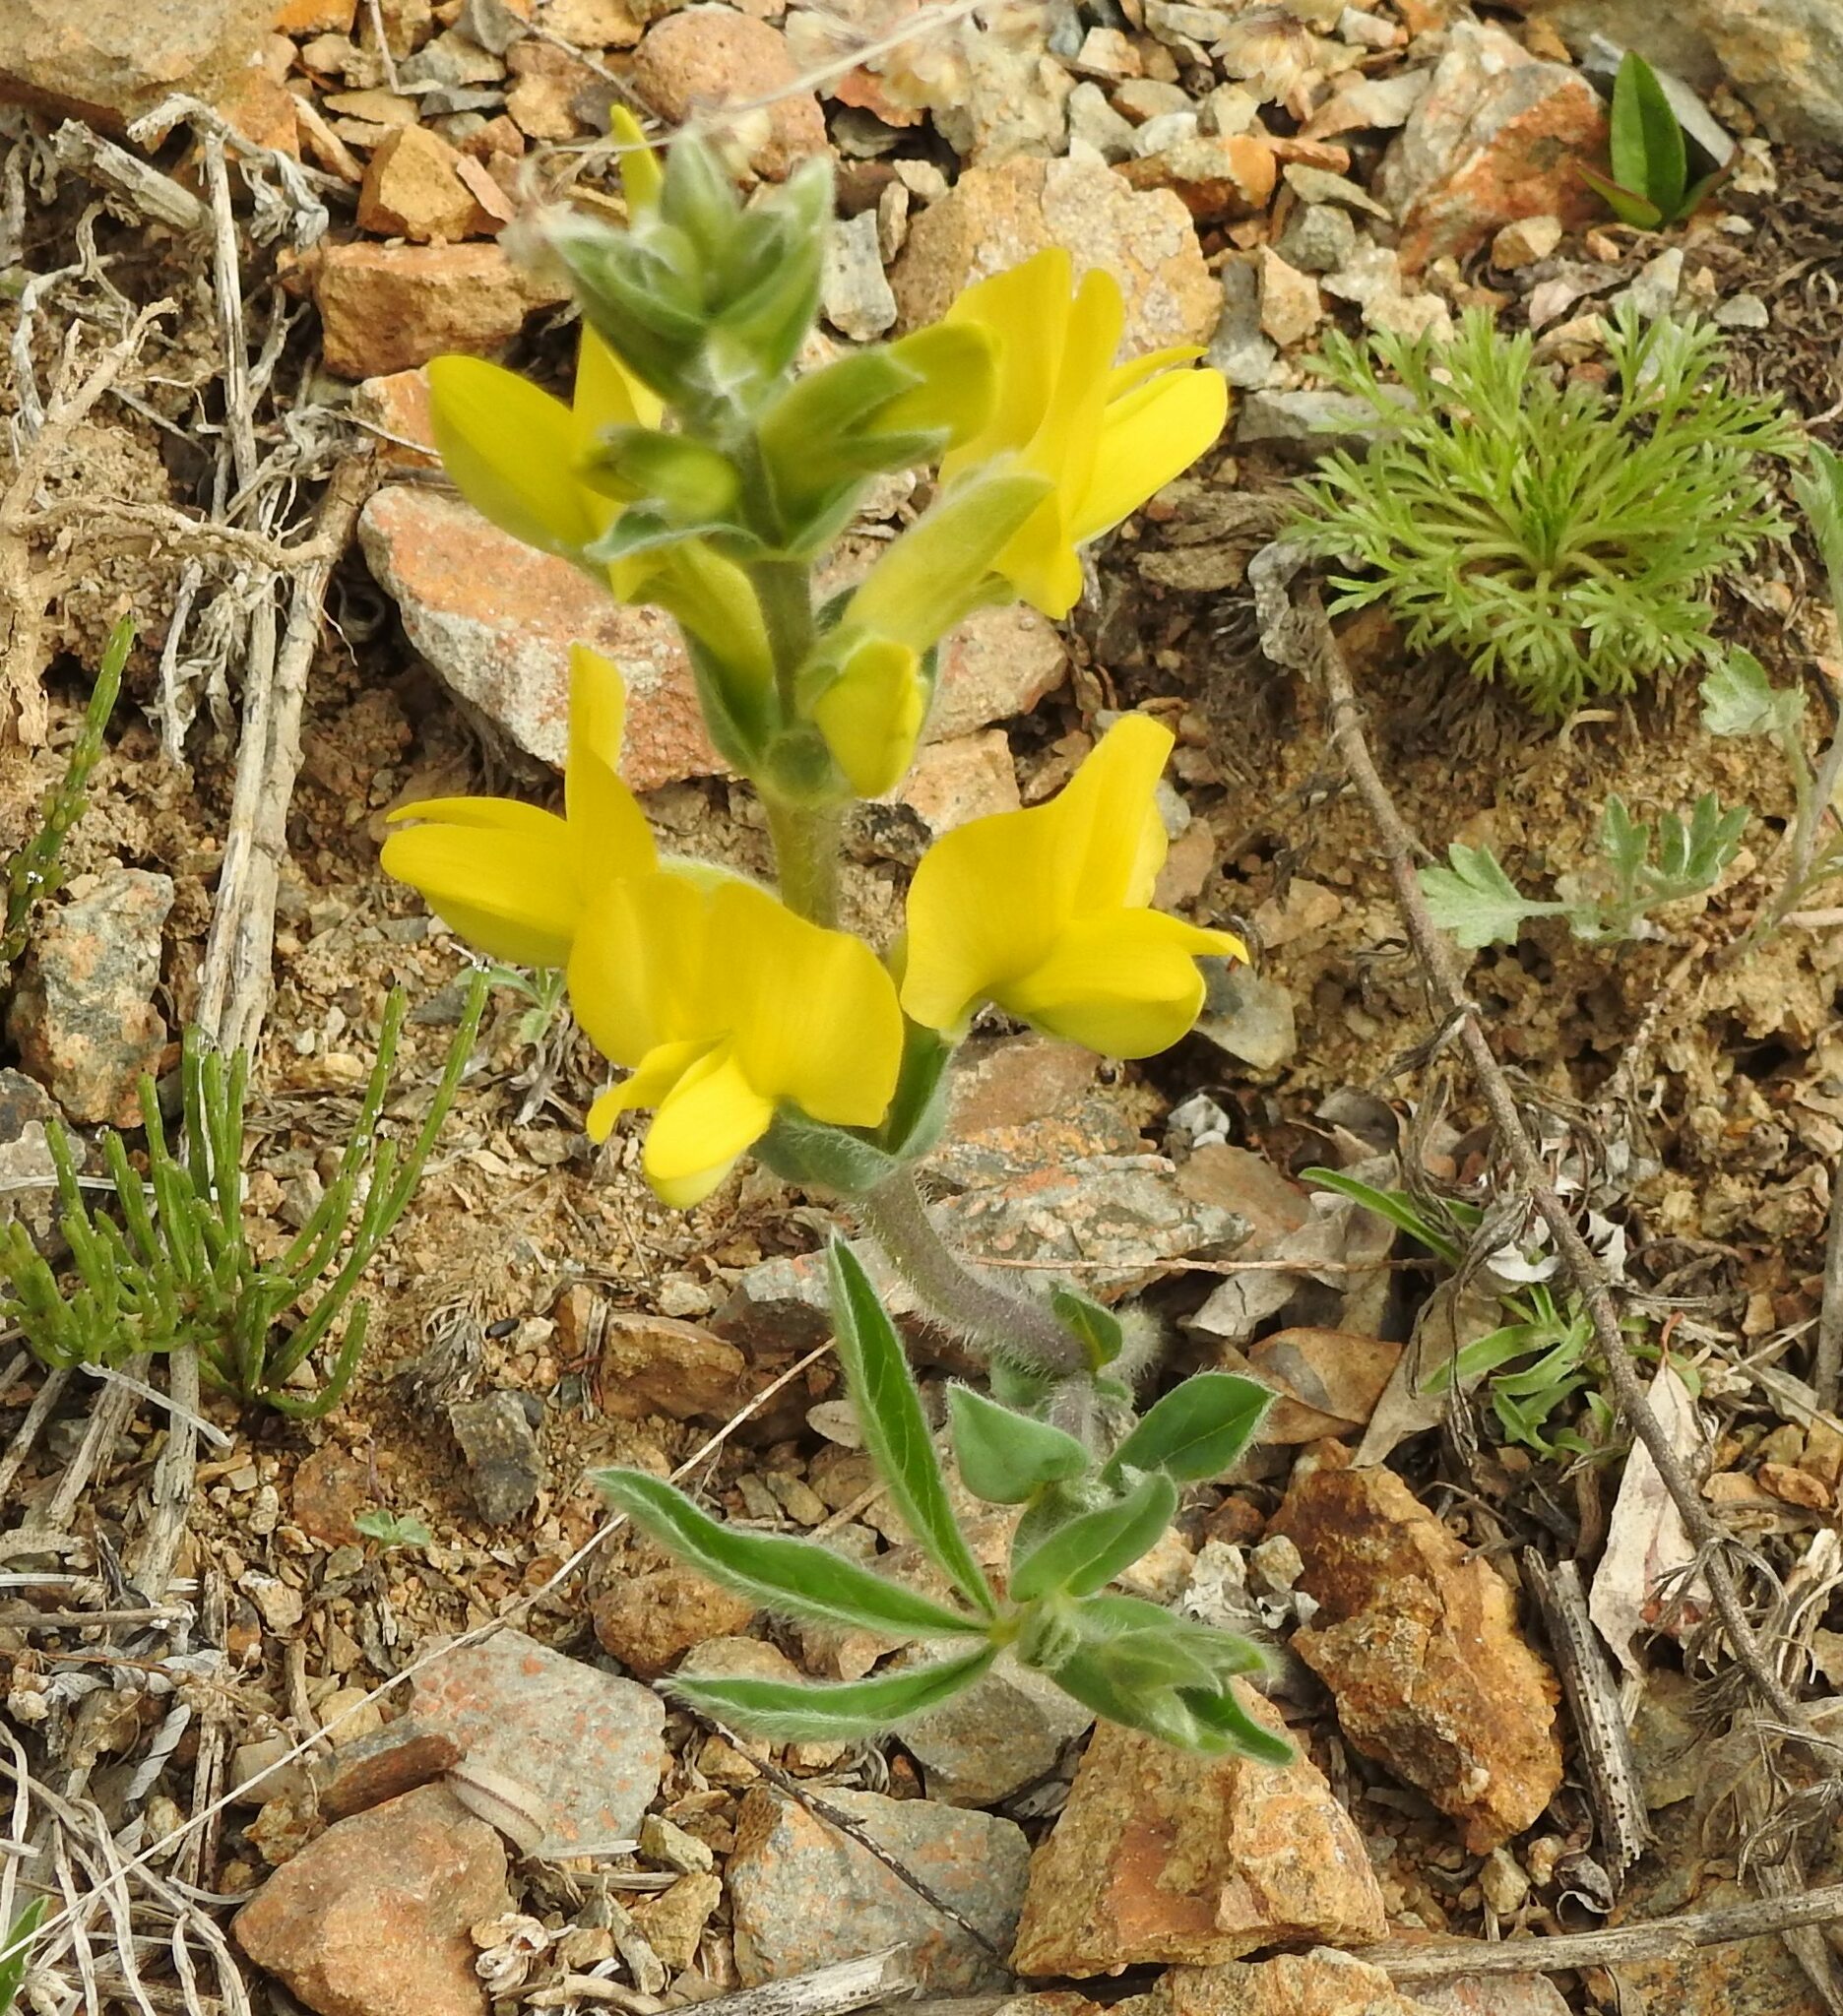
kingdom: Plantae
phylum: Tracheophyta
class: Magnoliopsida
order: Fabales
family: Fabaceae
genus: Thermopsis
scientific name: Thermopsis lanceolata
